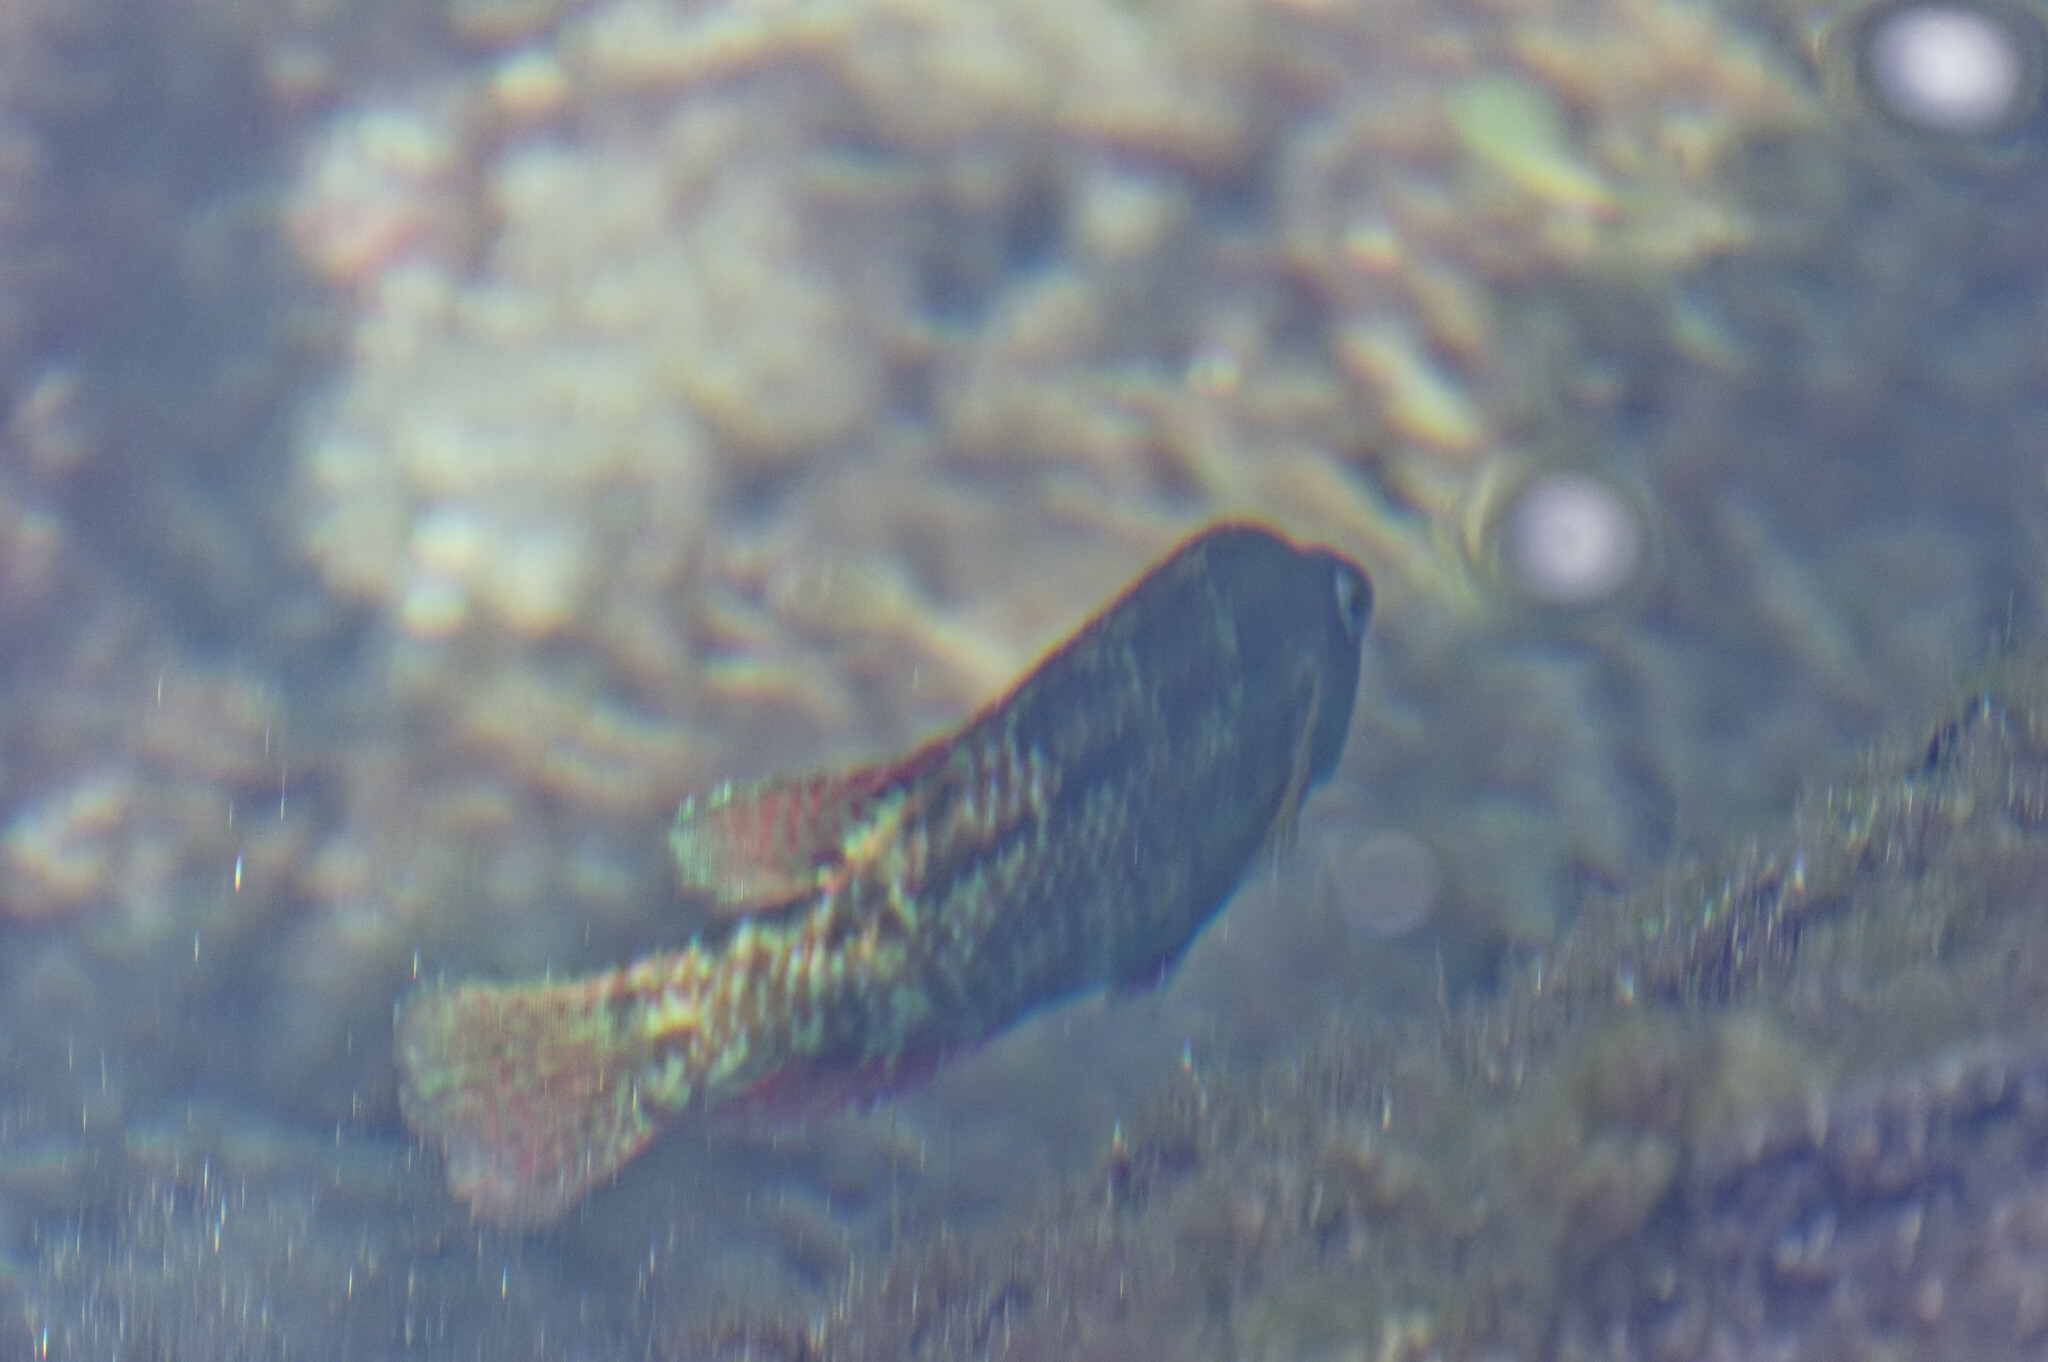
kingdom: Animalia
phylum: Chordata
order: Perciformes
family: Labridae
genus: Symphodus
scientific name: Symphodus trutta
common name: Emerald wrasse
